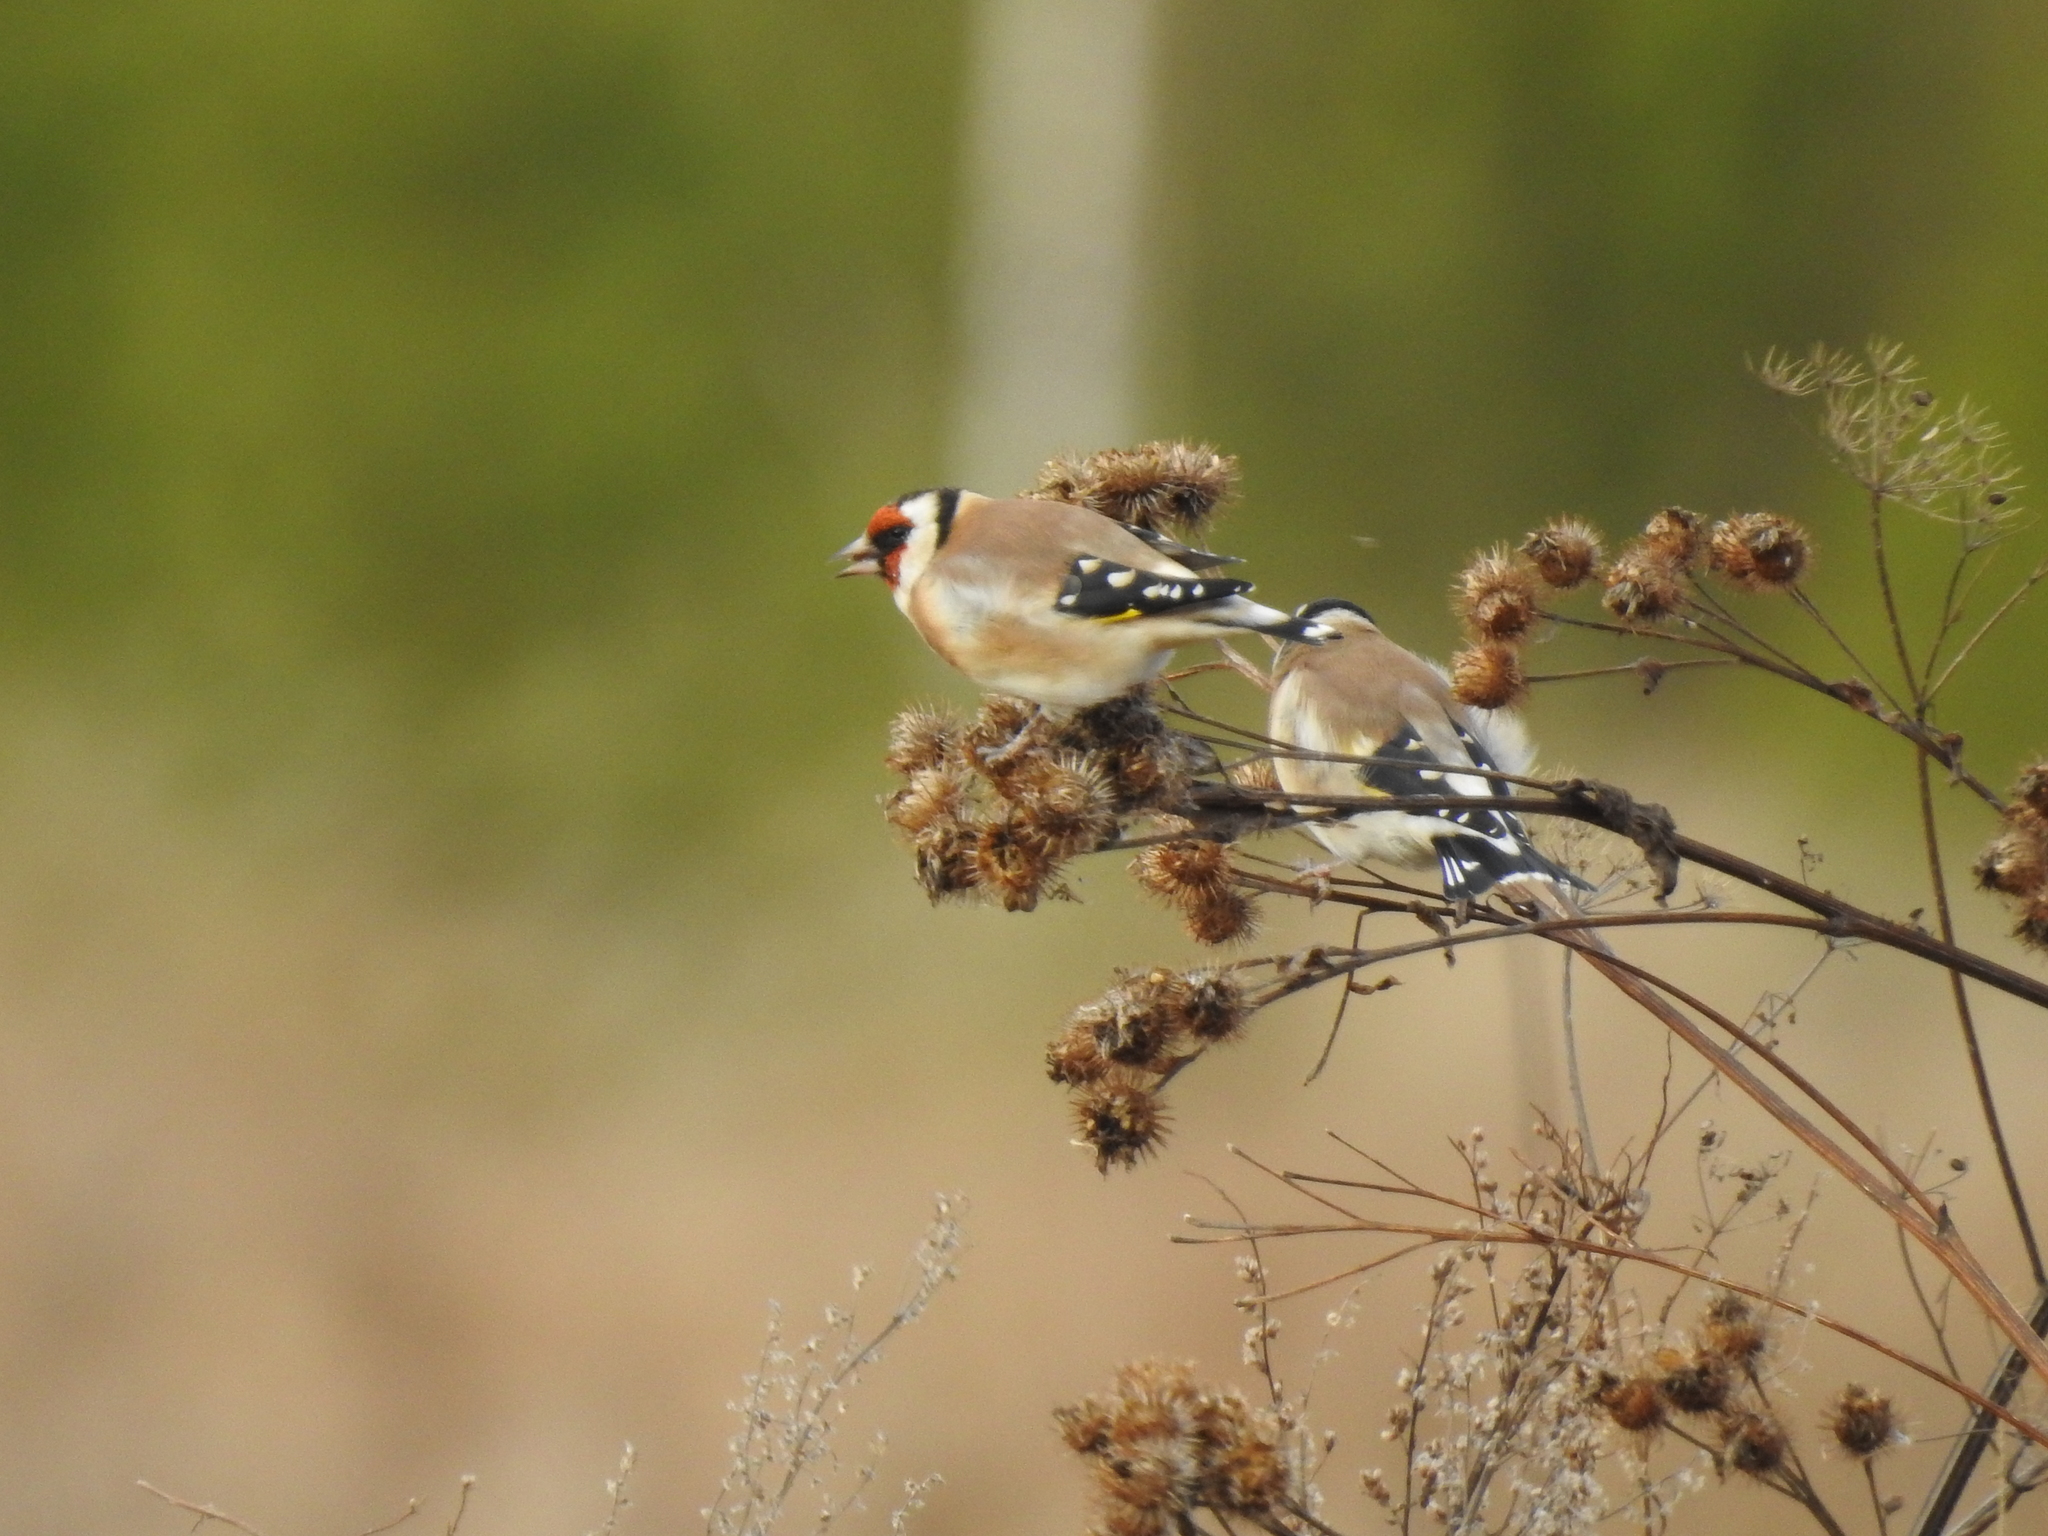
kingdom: Animalia
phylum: Chordata
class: Aves
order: Passeriformes
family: Fringillidae
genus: Carduelis
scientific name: Carduelis carduelis
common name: European goldfinch
